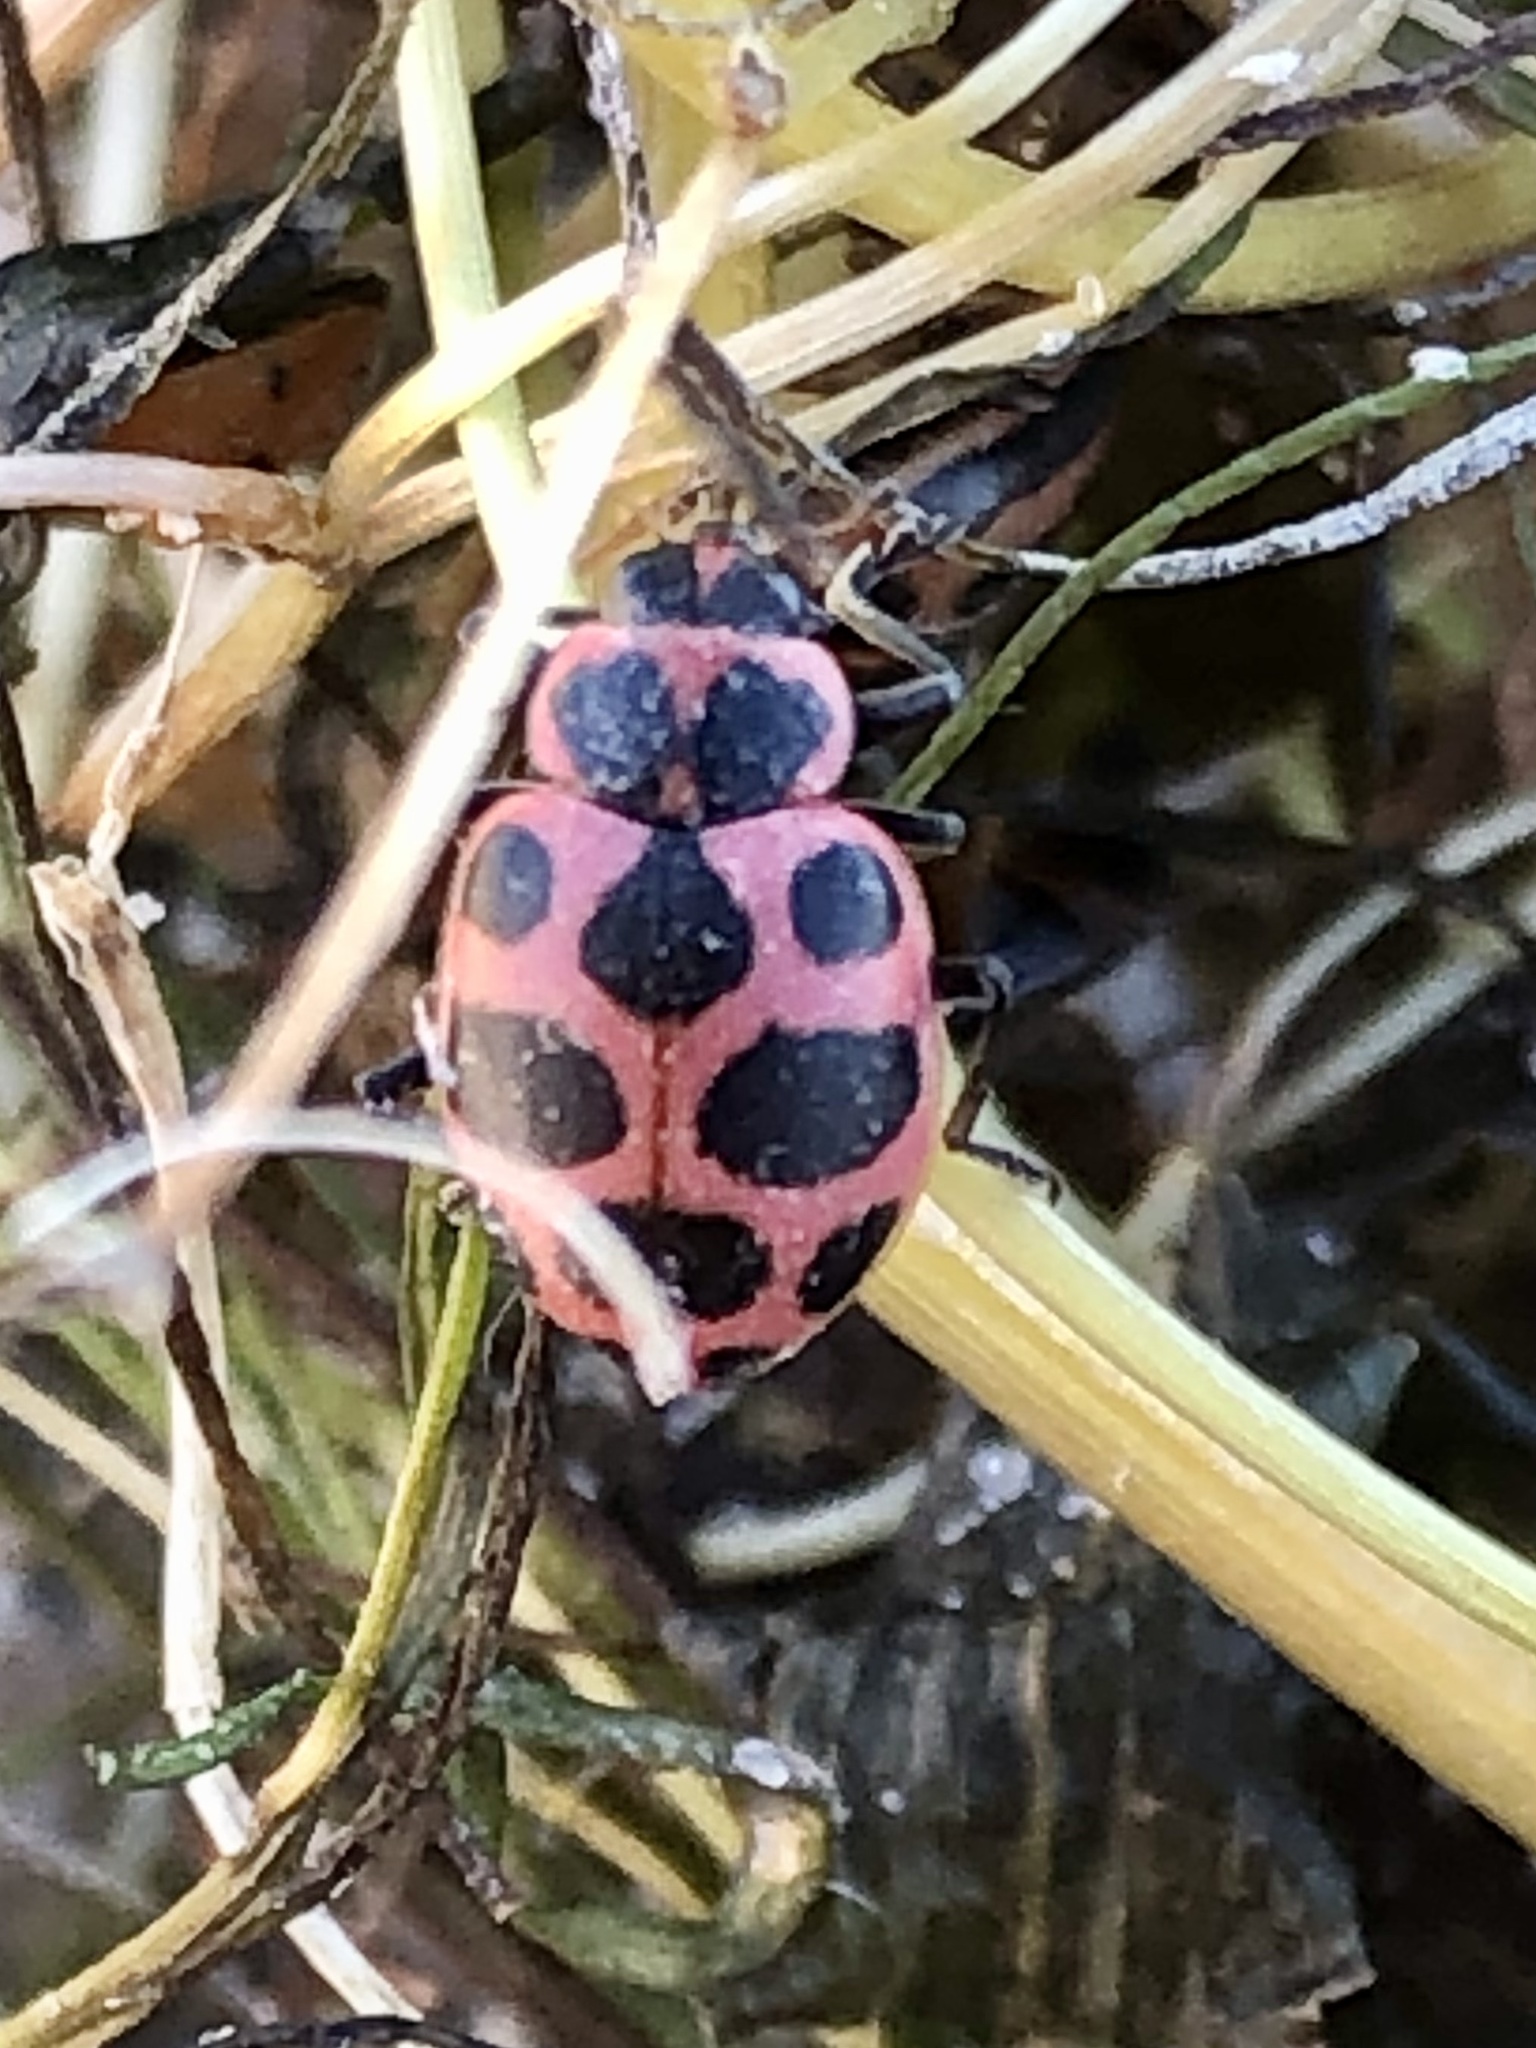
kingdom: Animalia
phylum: Arthropoda
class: Insecta
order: Coleoptera
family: Coccinellidae
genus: Coleomegilla
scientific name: Coleomegilla maculata
